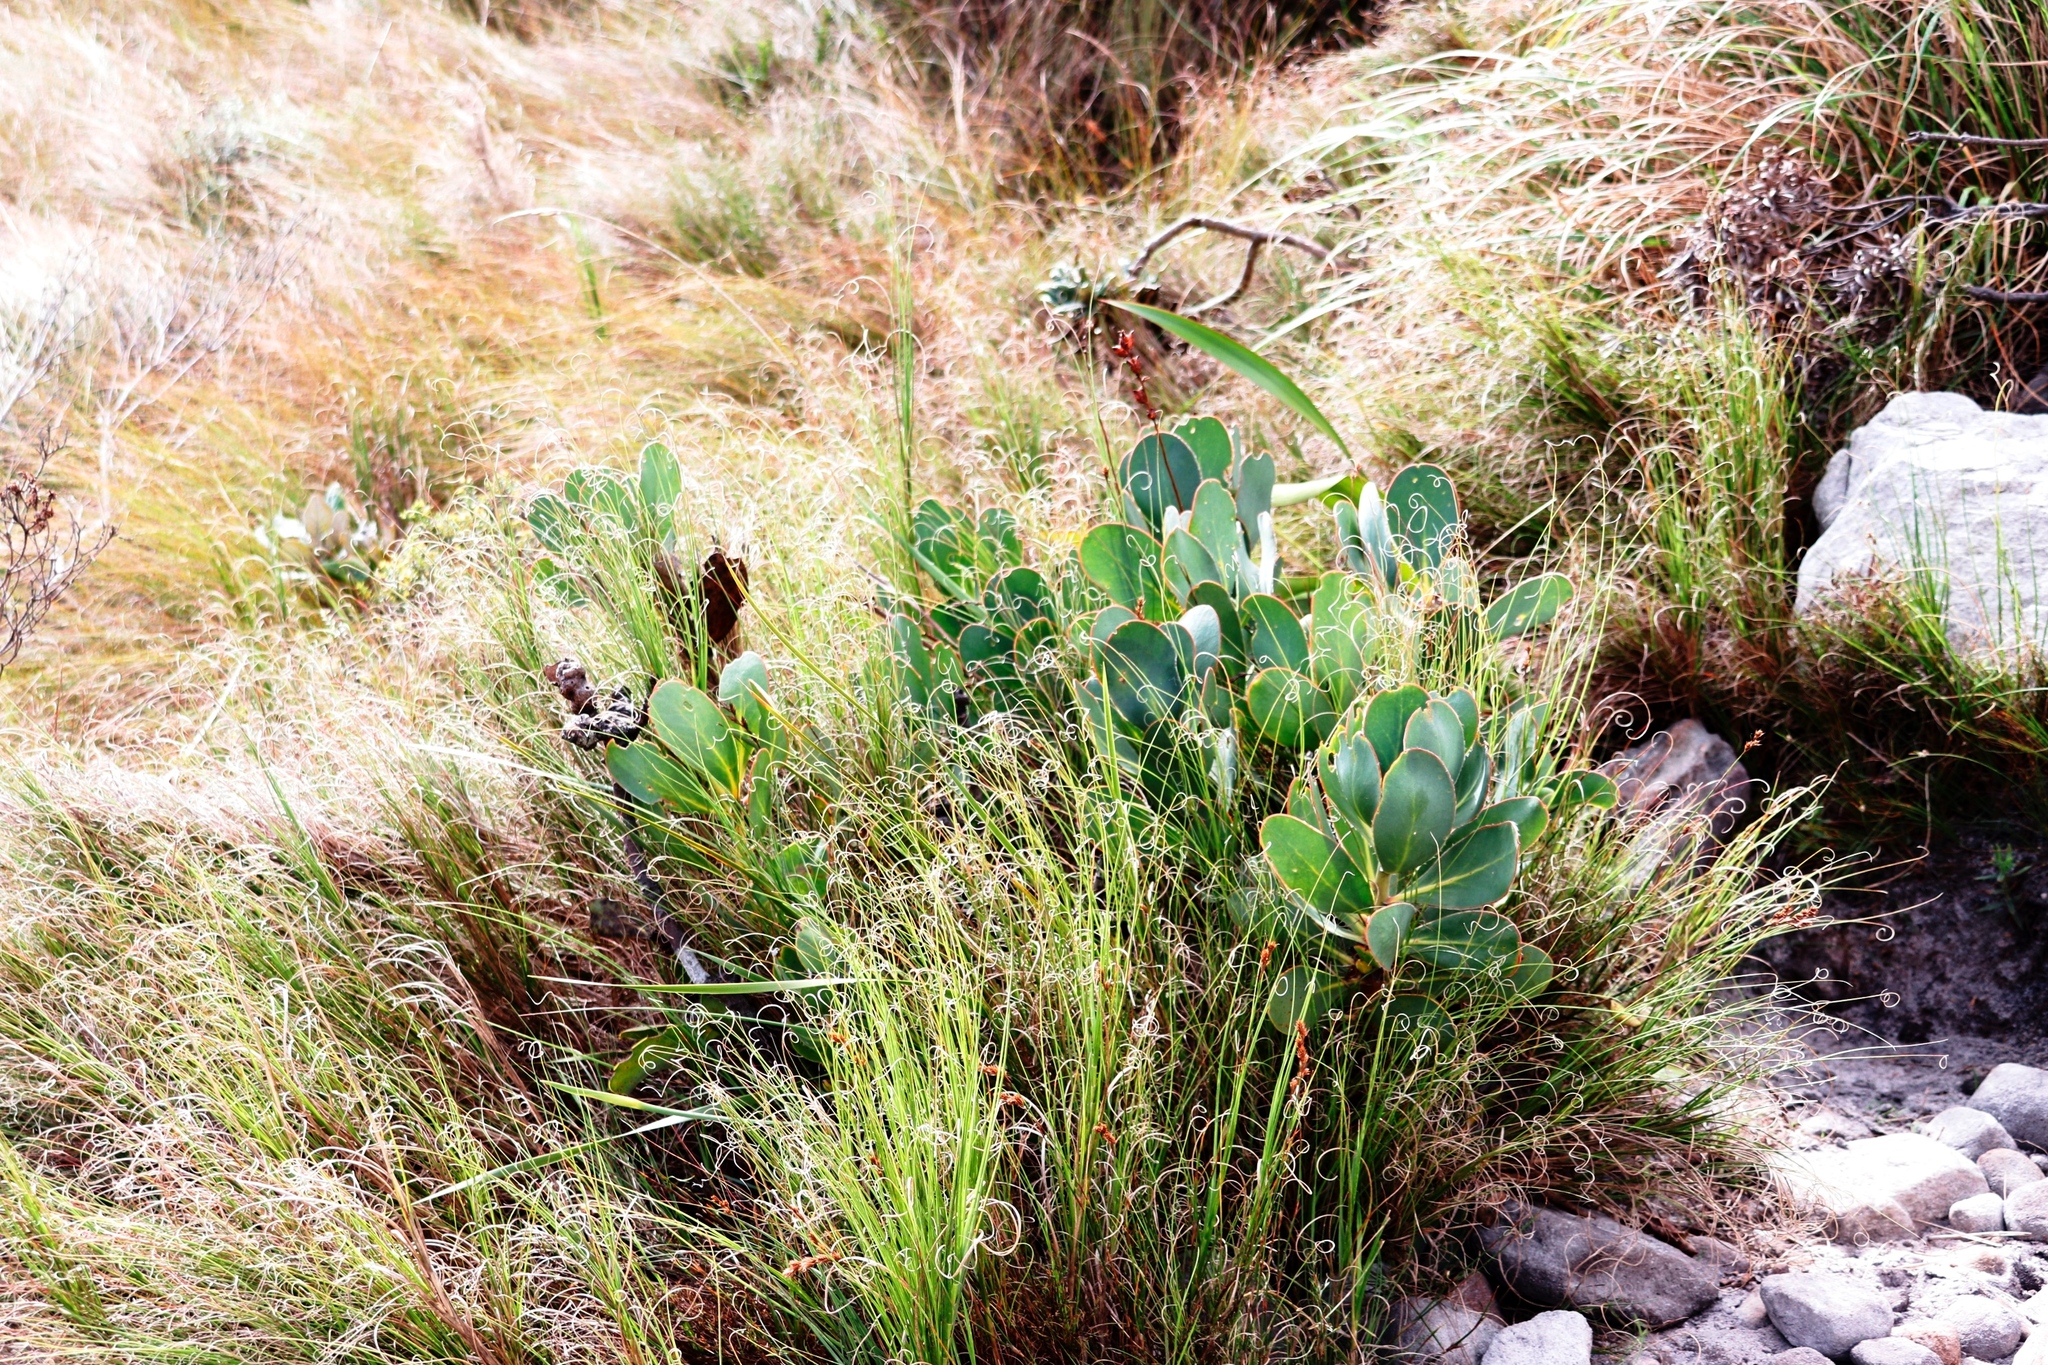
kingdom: Plantae
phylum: Tracheophyta
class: Magnoliopsida
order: Proteales
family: Proteaceae
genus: Protea
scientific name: Protea grandiceps
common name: Red sugarbush
